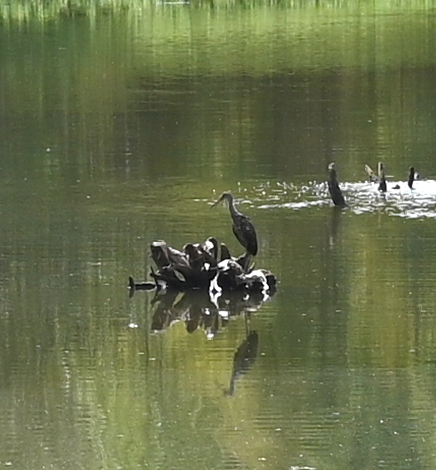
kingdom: Animalia
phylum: Chordata
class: Aves
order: Gruiformes
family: Aramidae
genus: Aramus
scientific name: Aramus guarauna
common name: Limpkin
